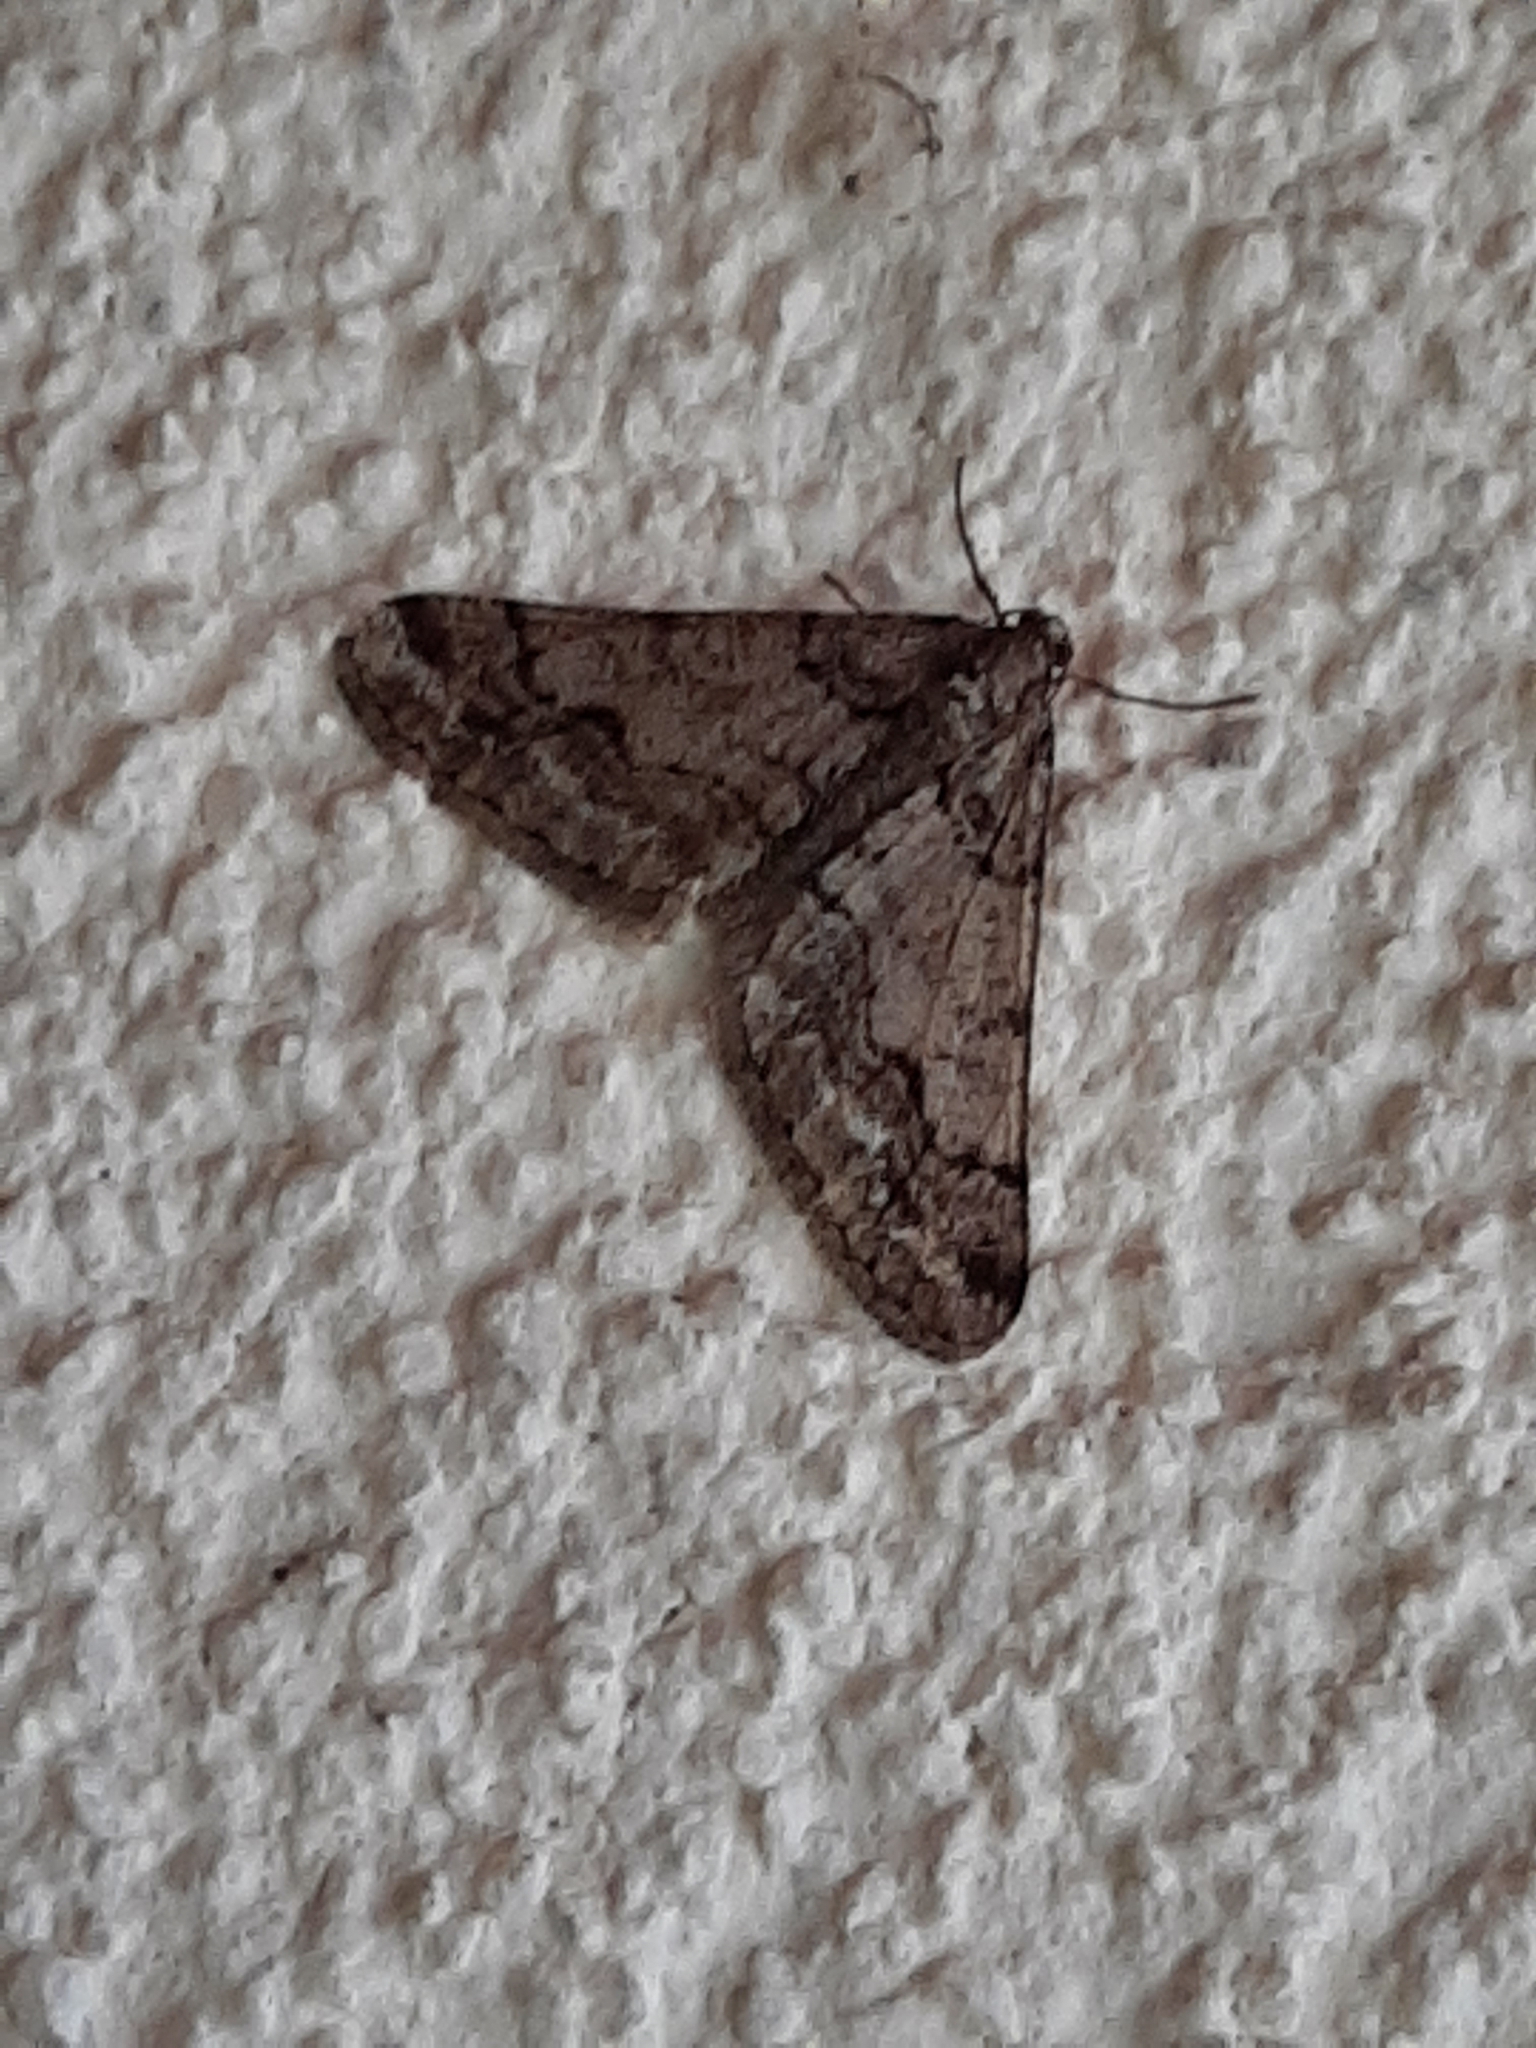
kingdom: Animalia
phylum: Arthropoda
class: Insecta
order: Lepidoptera
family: Geometridae
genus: Agriopis
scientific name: Agriopis leucophaearia
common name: Spring usher
